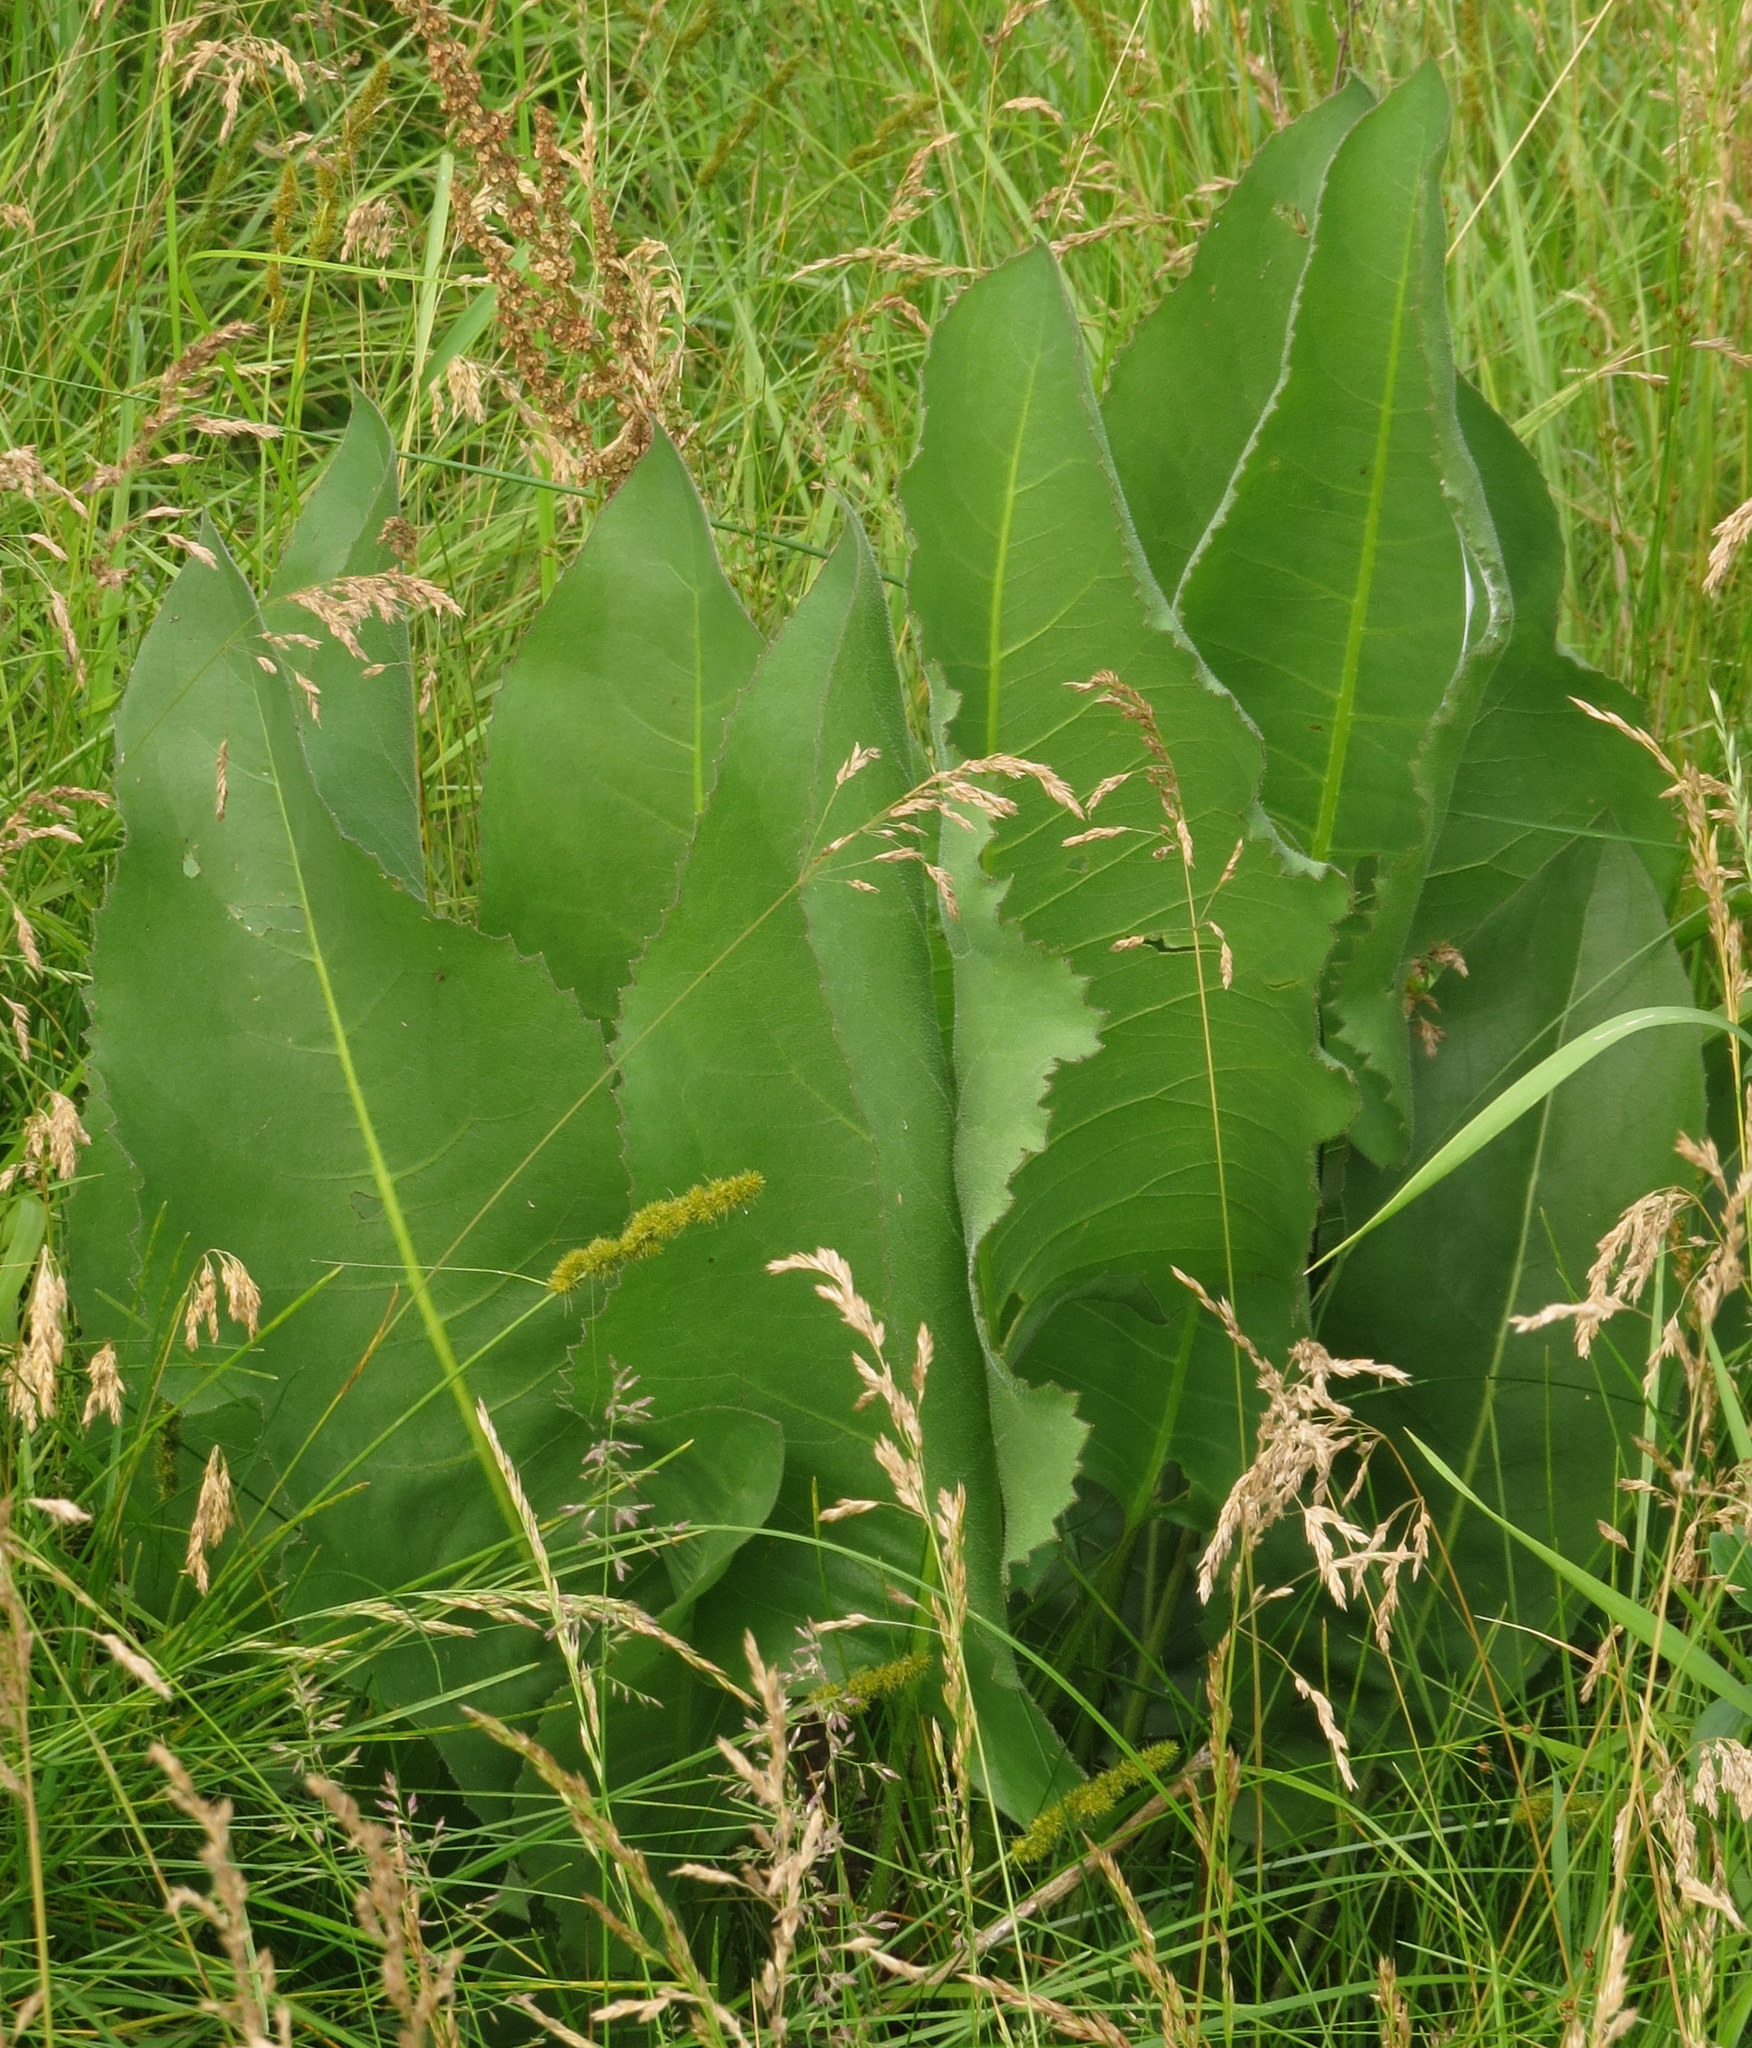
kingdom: Plantae
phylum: Tracheophyta
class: Magnoliopsida
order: Asterales
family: Asteraceae
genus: Silphium
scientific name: Silphium terebinthinaceum
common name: Basal-leaf rosinweed
